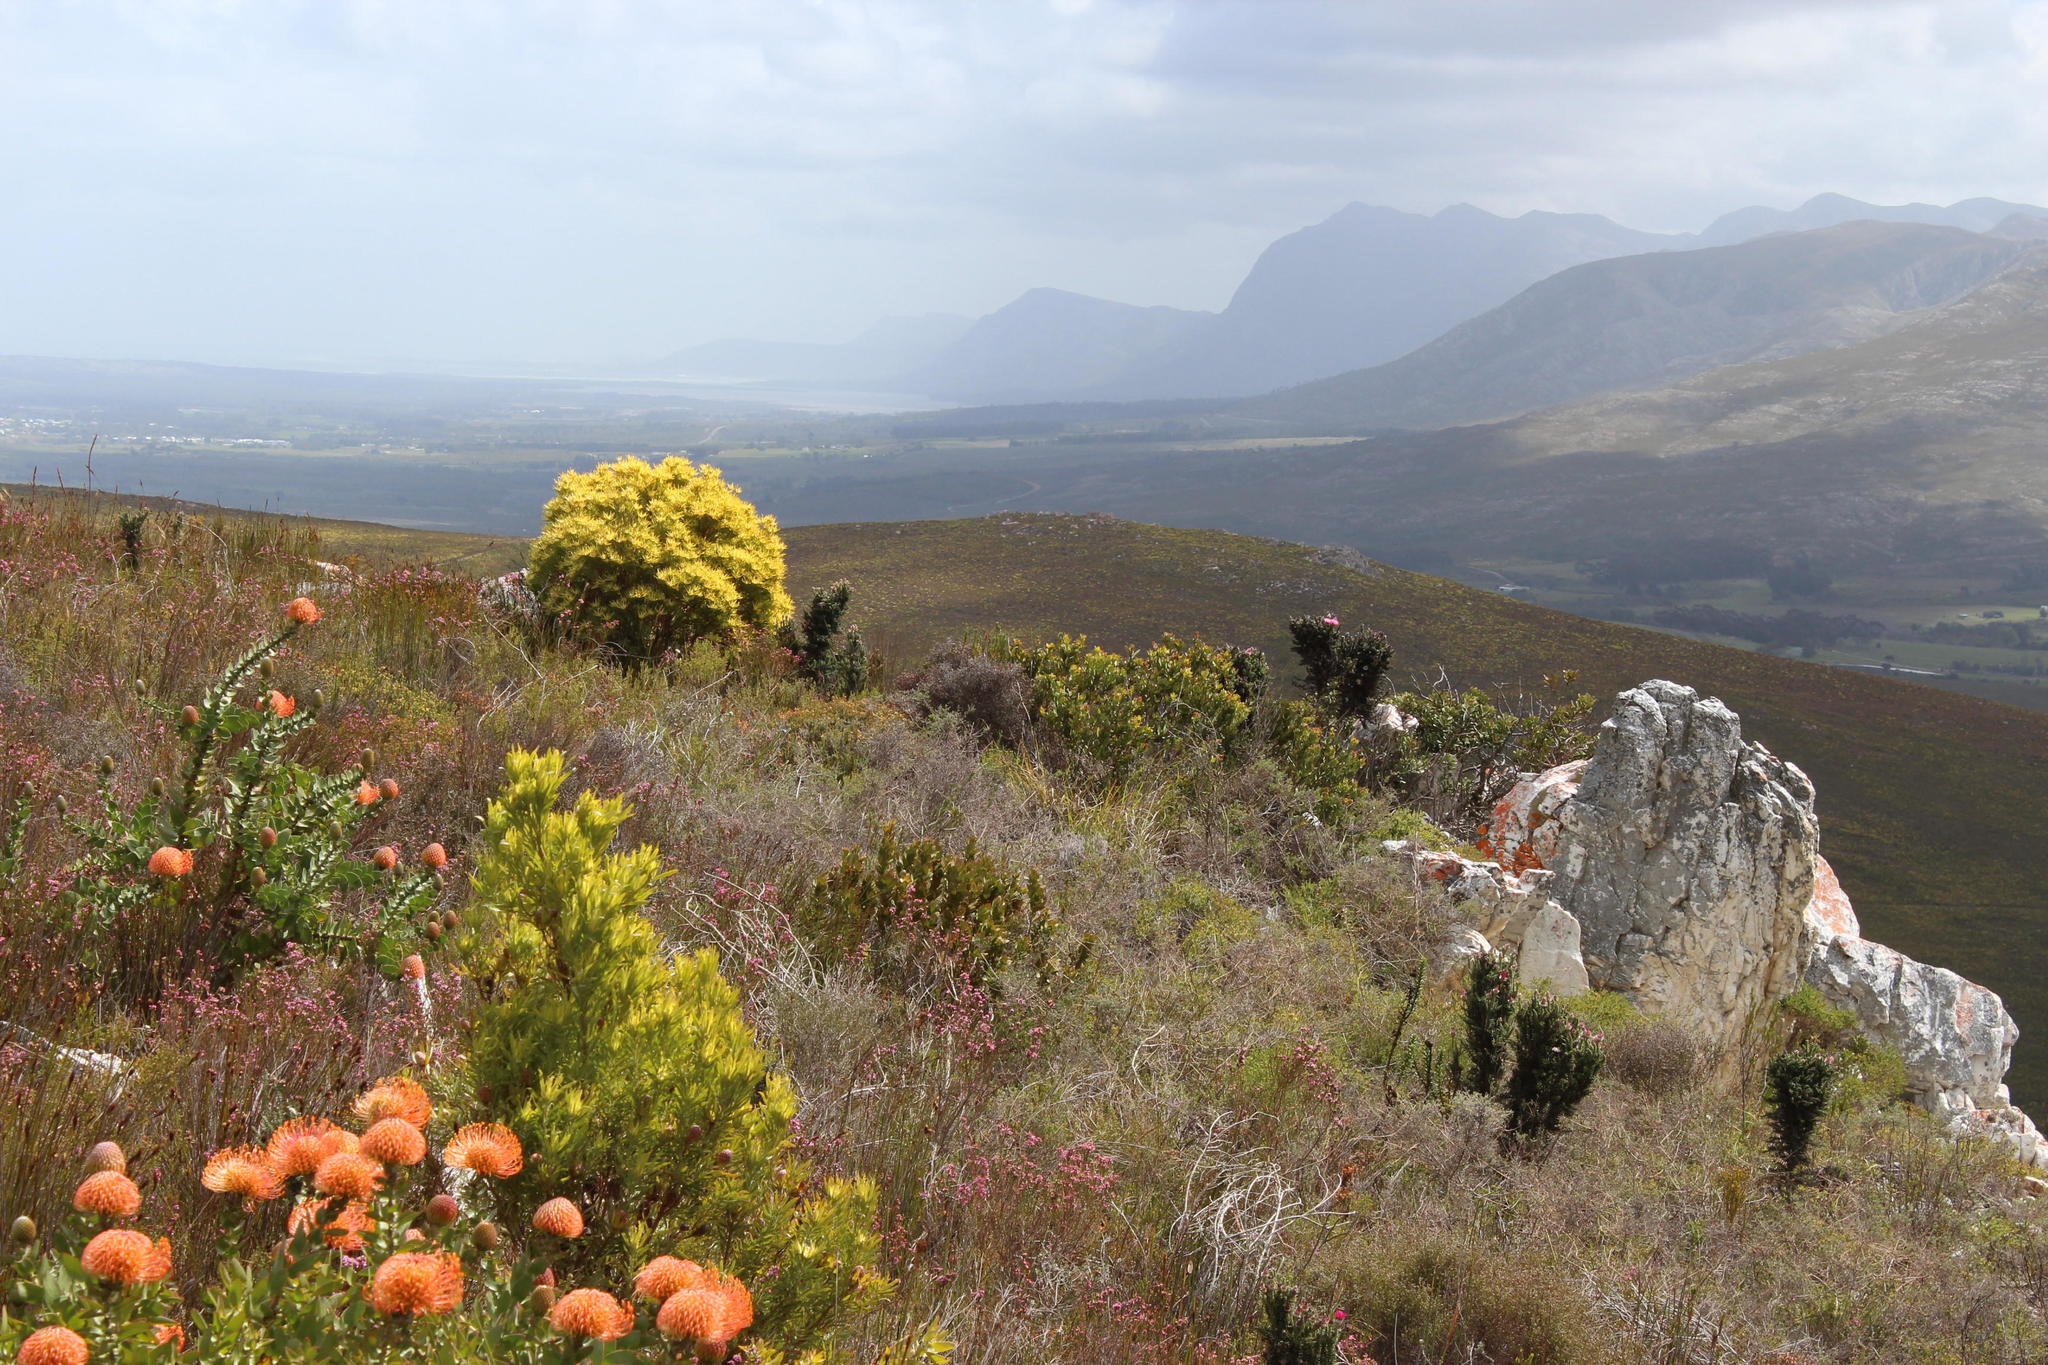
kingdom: Plantae
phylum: Tracheophyta
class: Magnoliopsida
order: Ericales
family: Ericaceae
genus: Erica
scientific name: Erica corifolia
